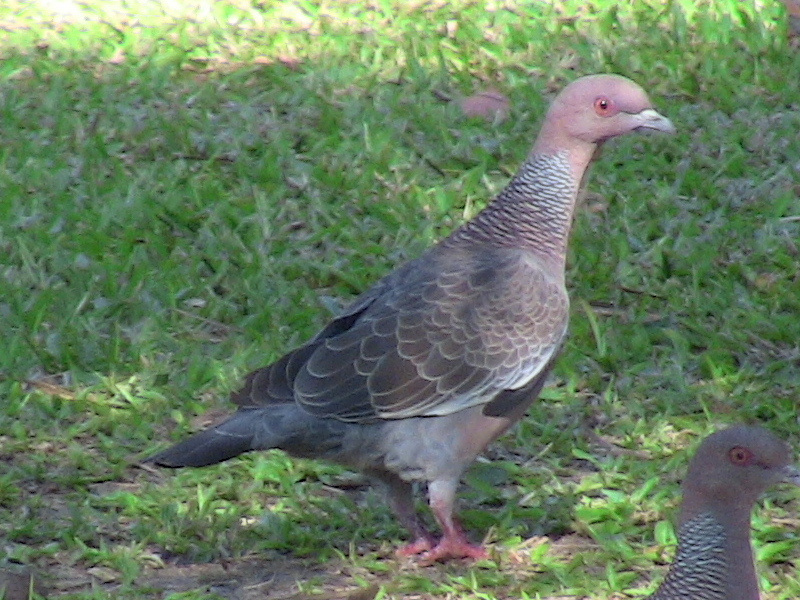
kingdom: Animalia
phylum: Chordata
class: Aves
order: Columbiformes
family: Columbidae
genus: Patagioenas
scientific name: Patagioenas picazuro
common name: Picazuro pigeon
